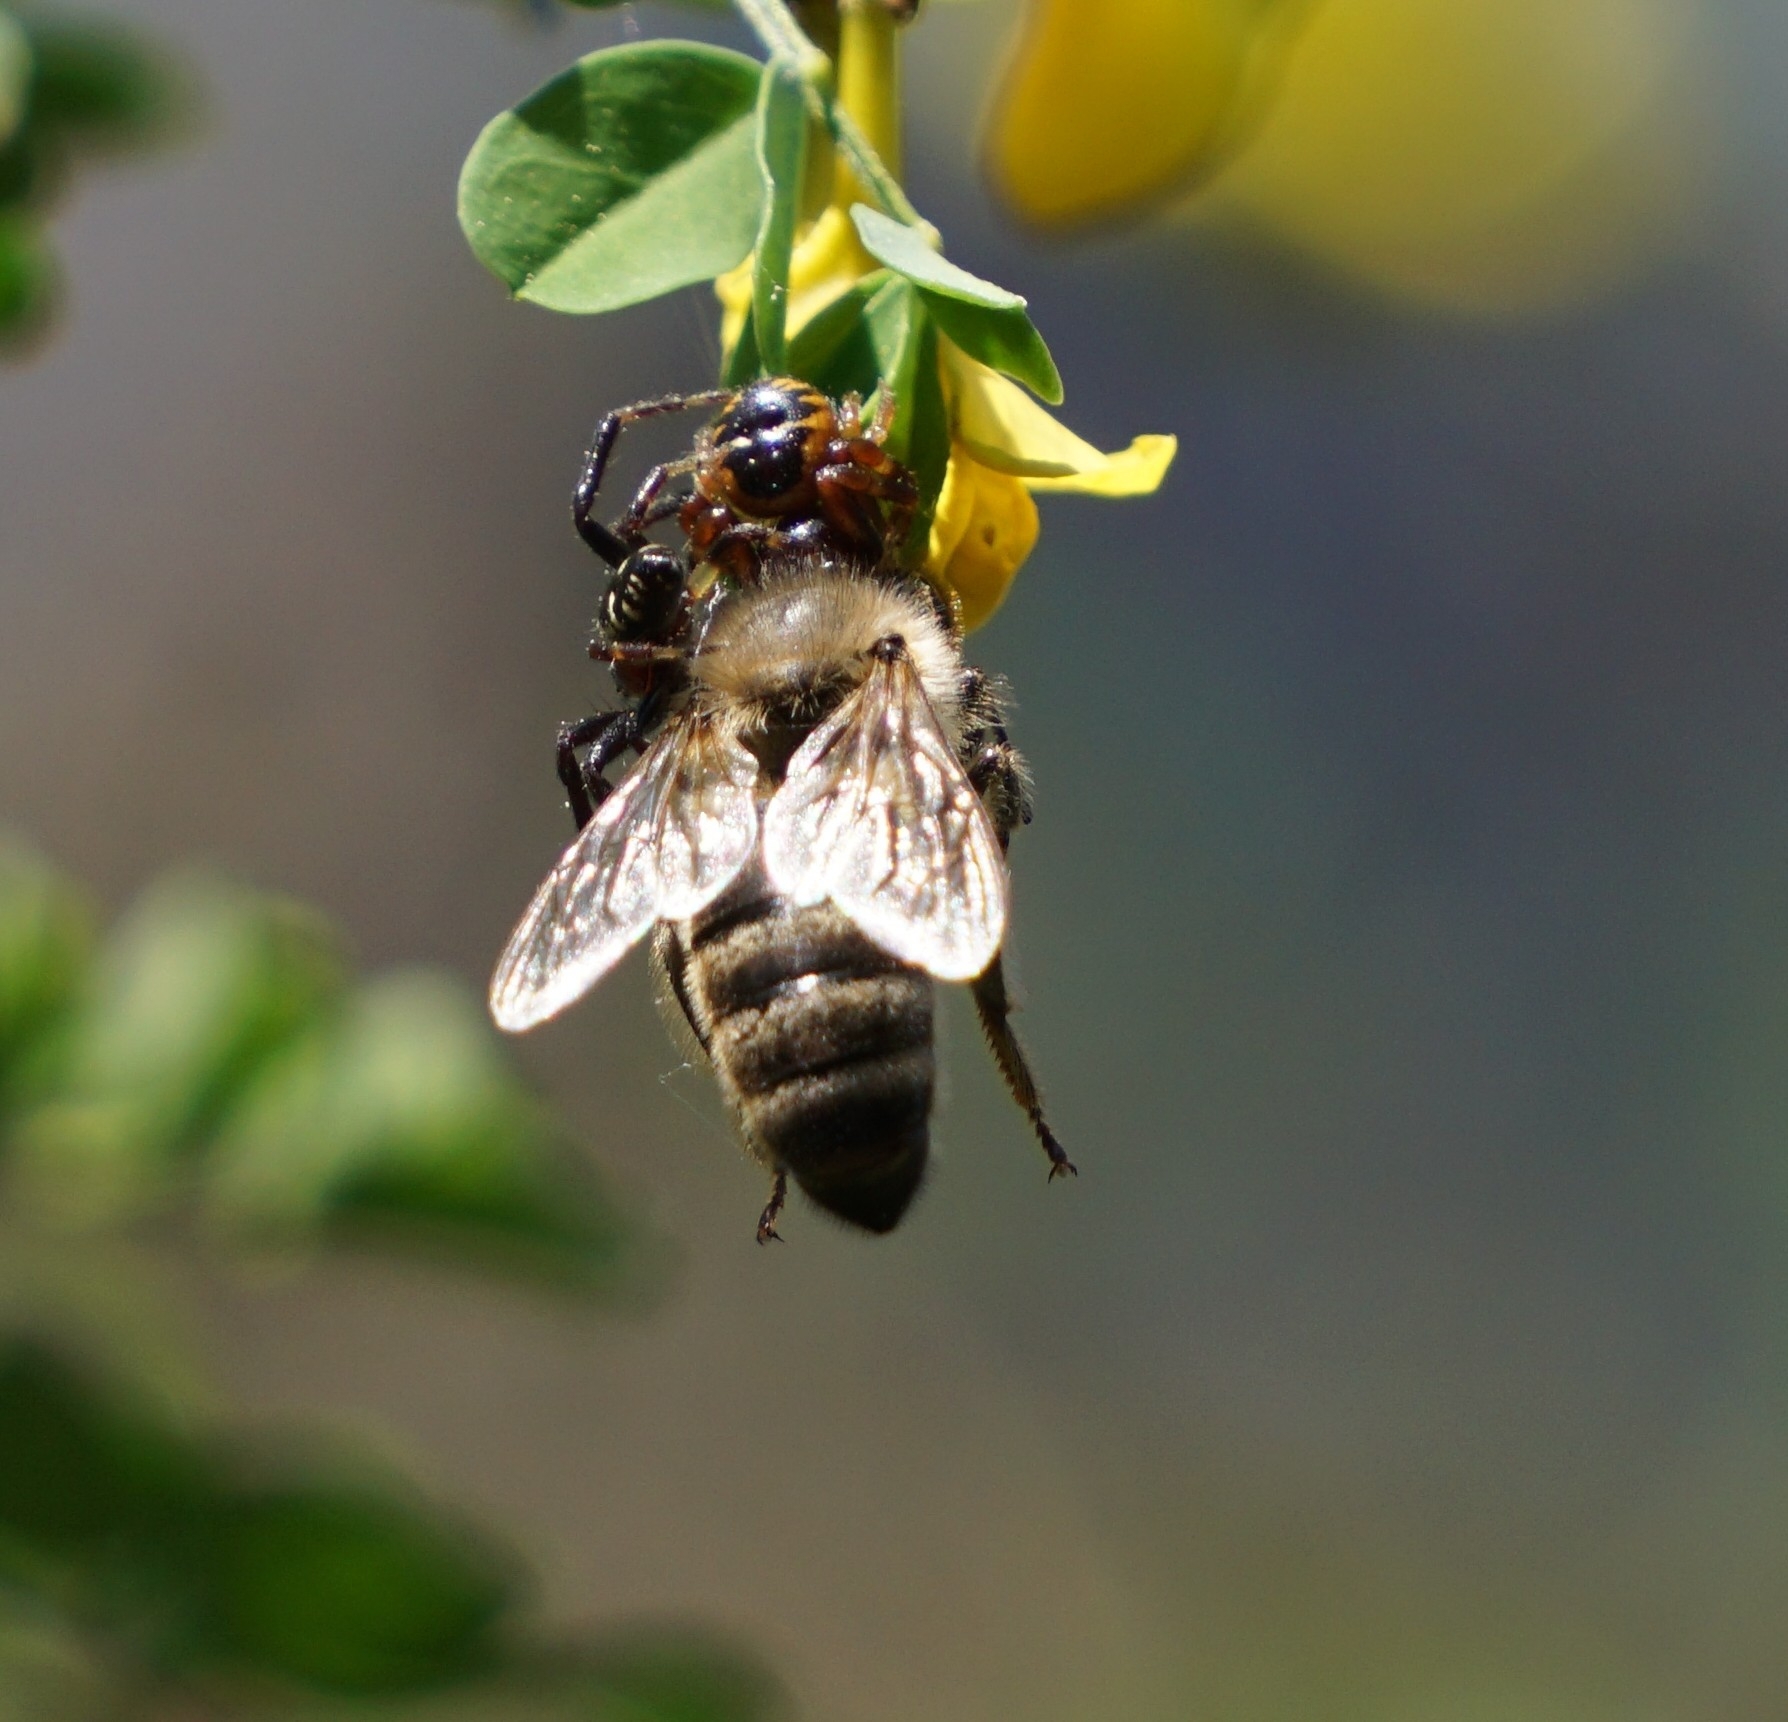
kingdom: Animalia
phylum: Arthropoda
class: Arachnida
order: Araneae
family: Thomisidae
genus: Synema
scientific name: Synema globosum
